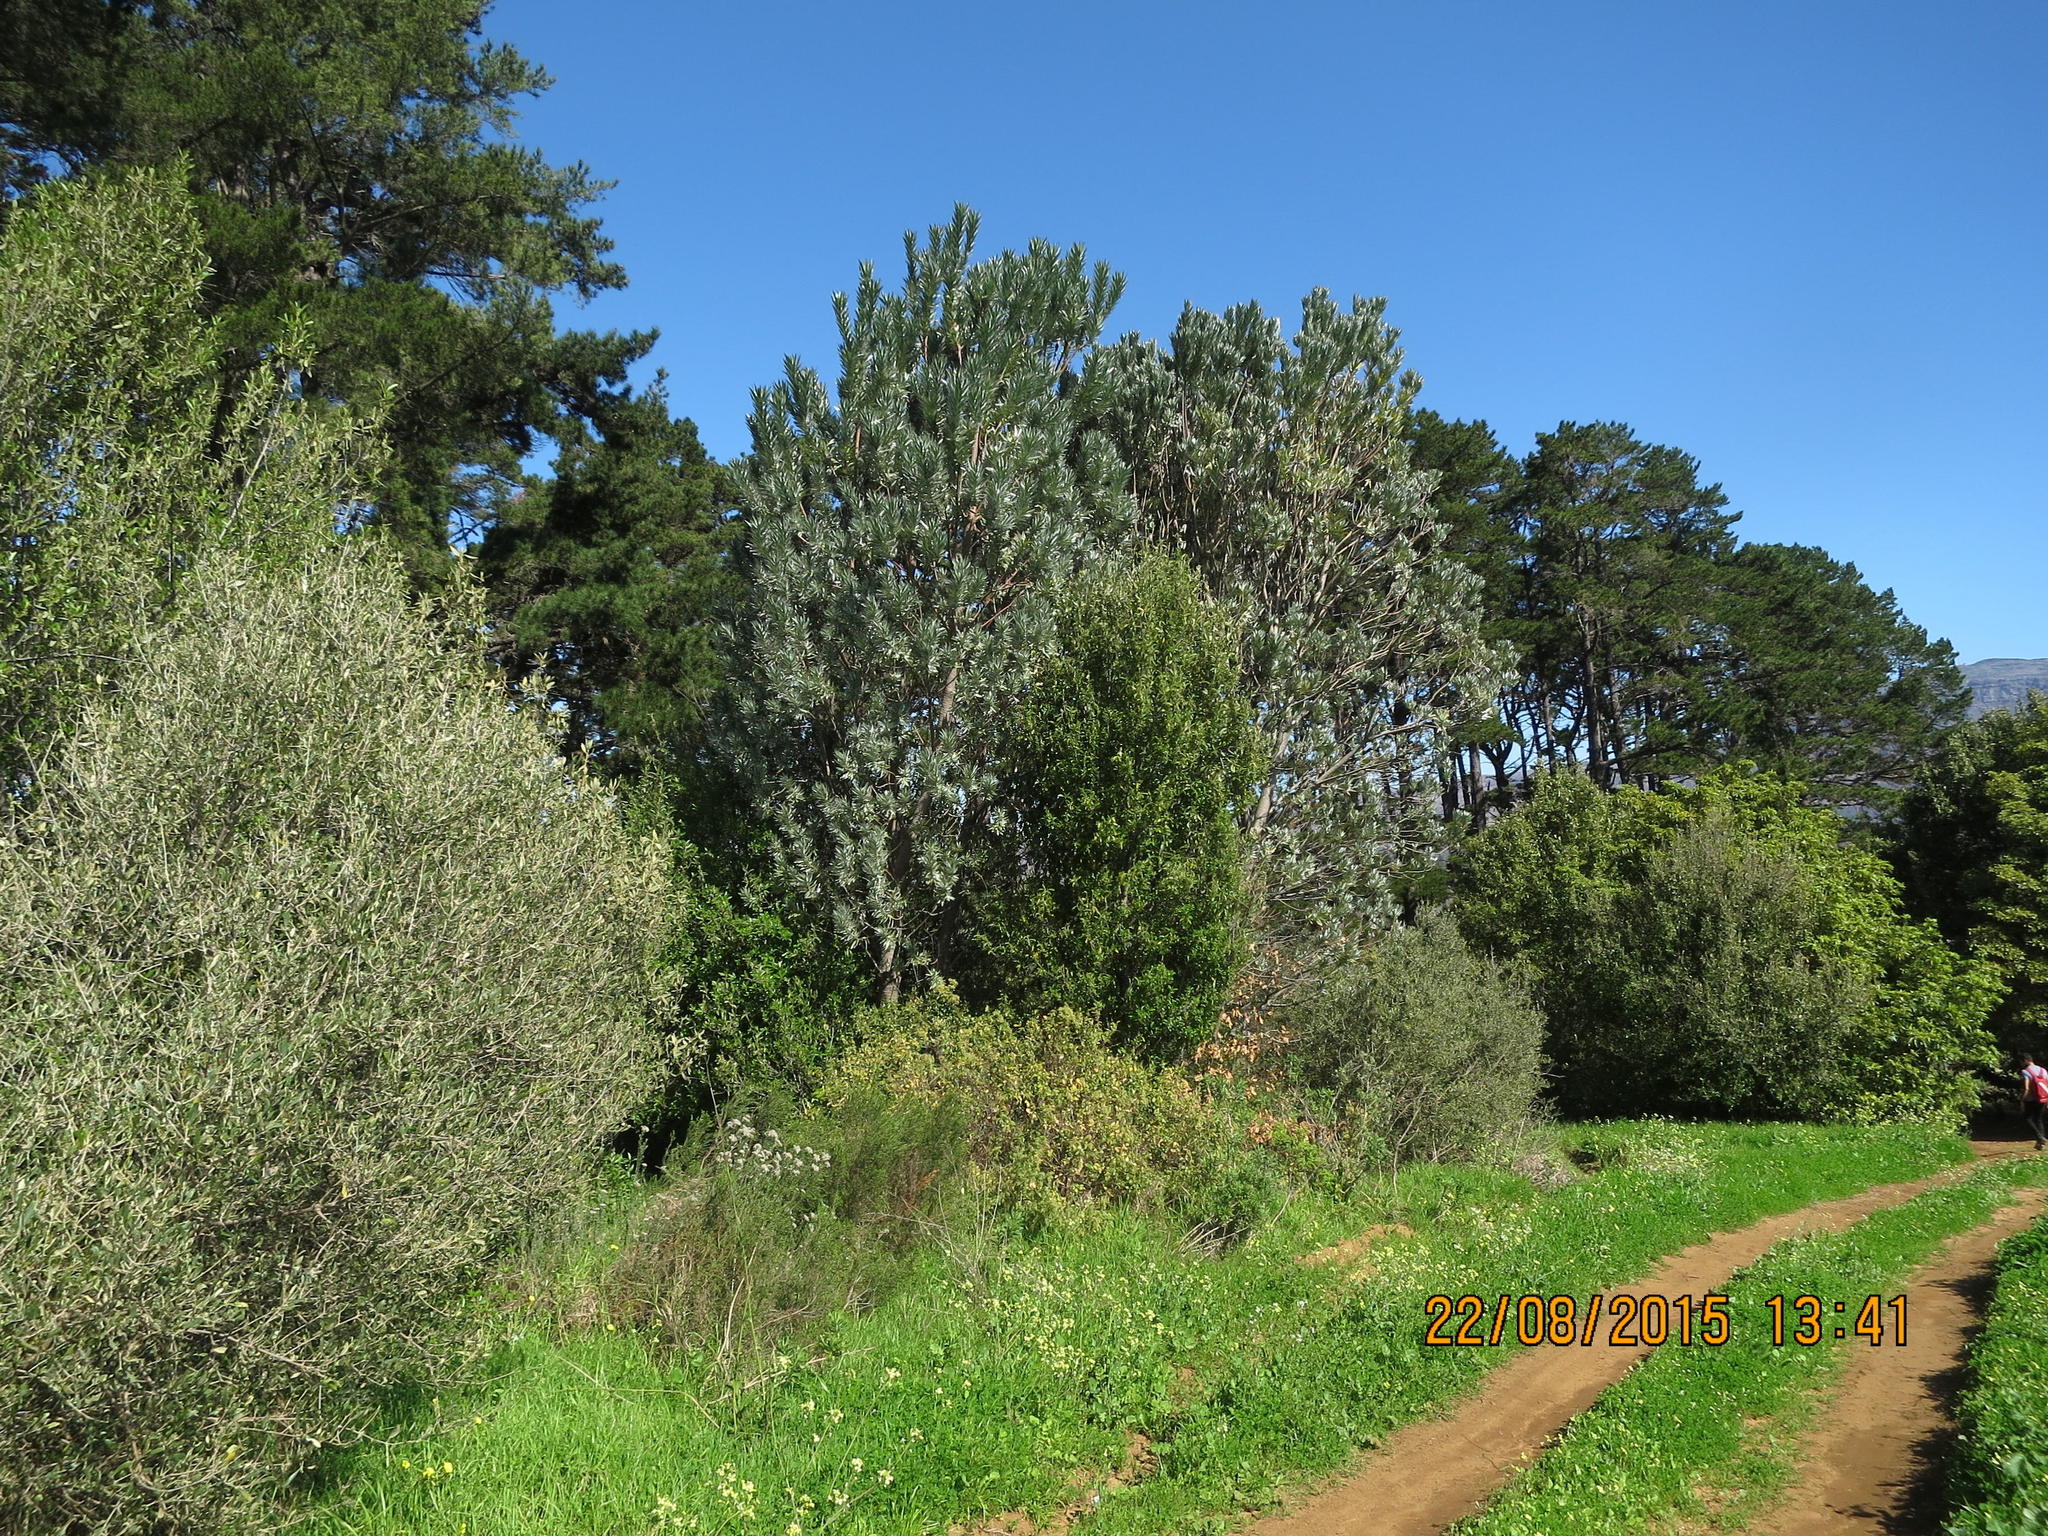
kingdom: Plantae
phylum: Tracheophyta
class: Magnoliopsida
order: Proteales
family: Proteaceae
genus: Leucadendron
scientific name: Leucadendron argenteum
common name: Cape silver tree
